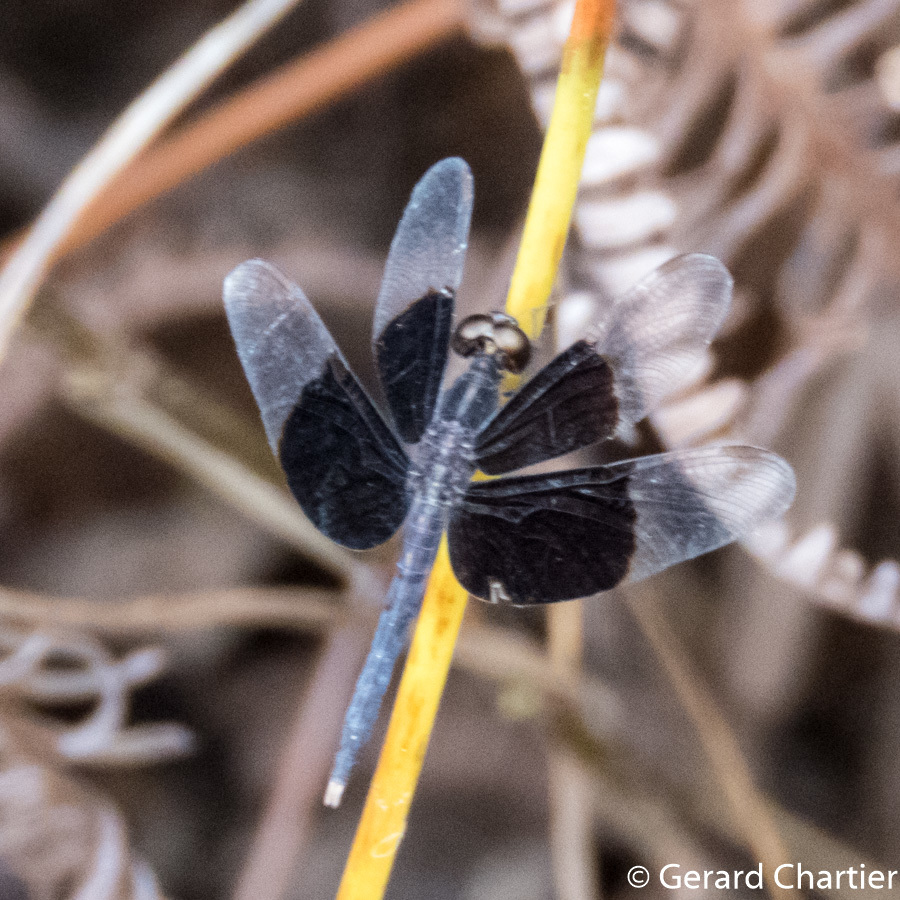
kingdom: Animalia
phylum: Arthropoda
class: Insecta
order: Odonata
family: Libellulidae
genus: Neurothemis
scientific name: Neurothemis tullia
